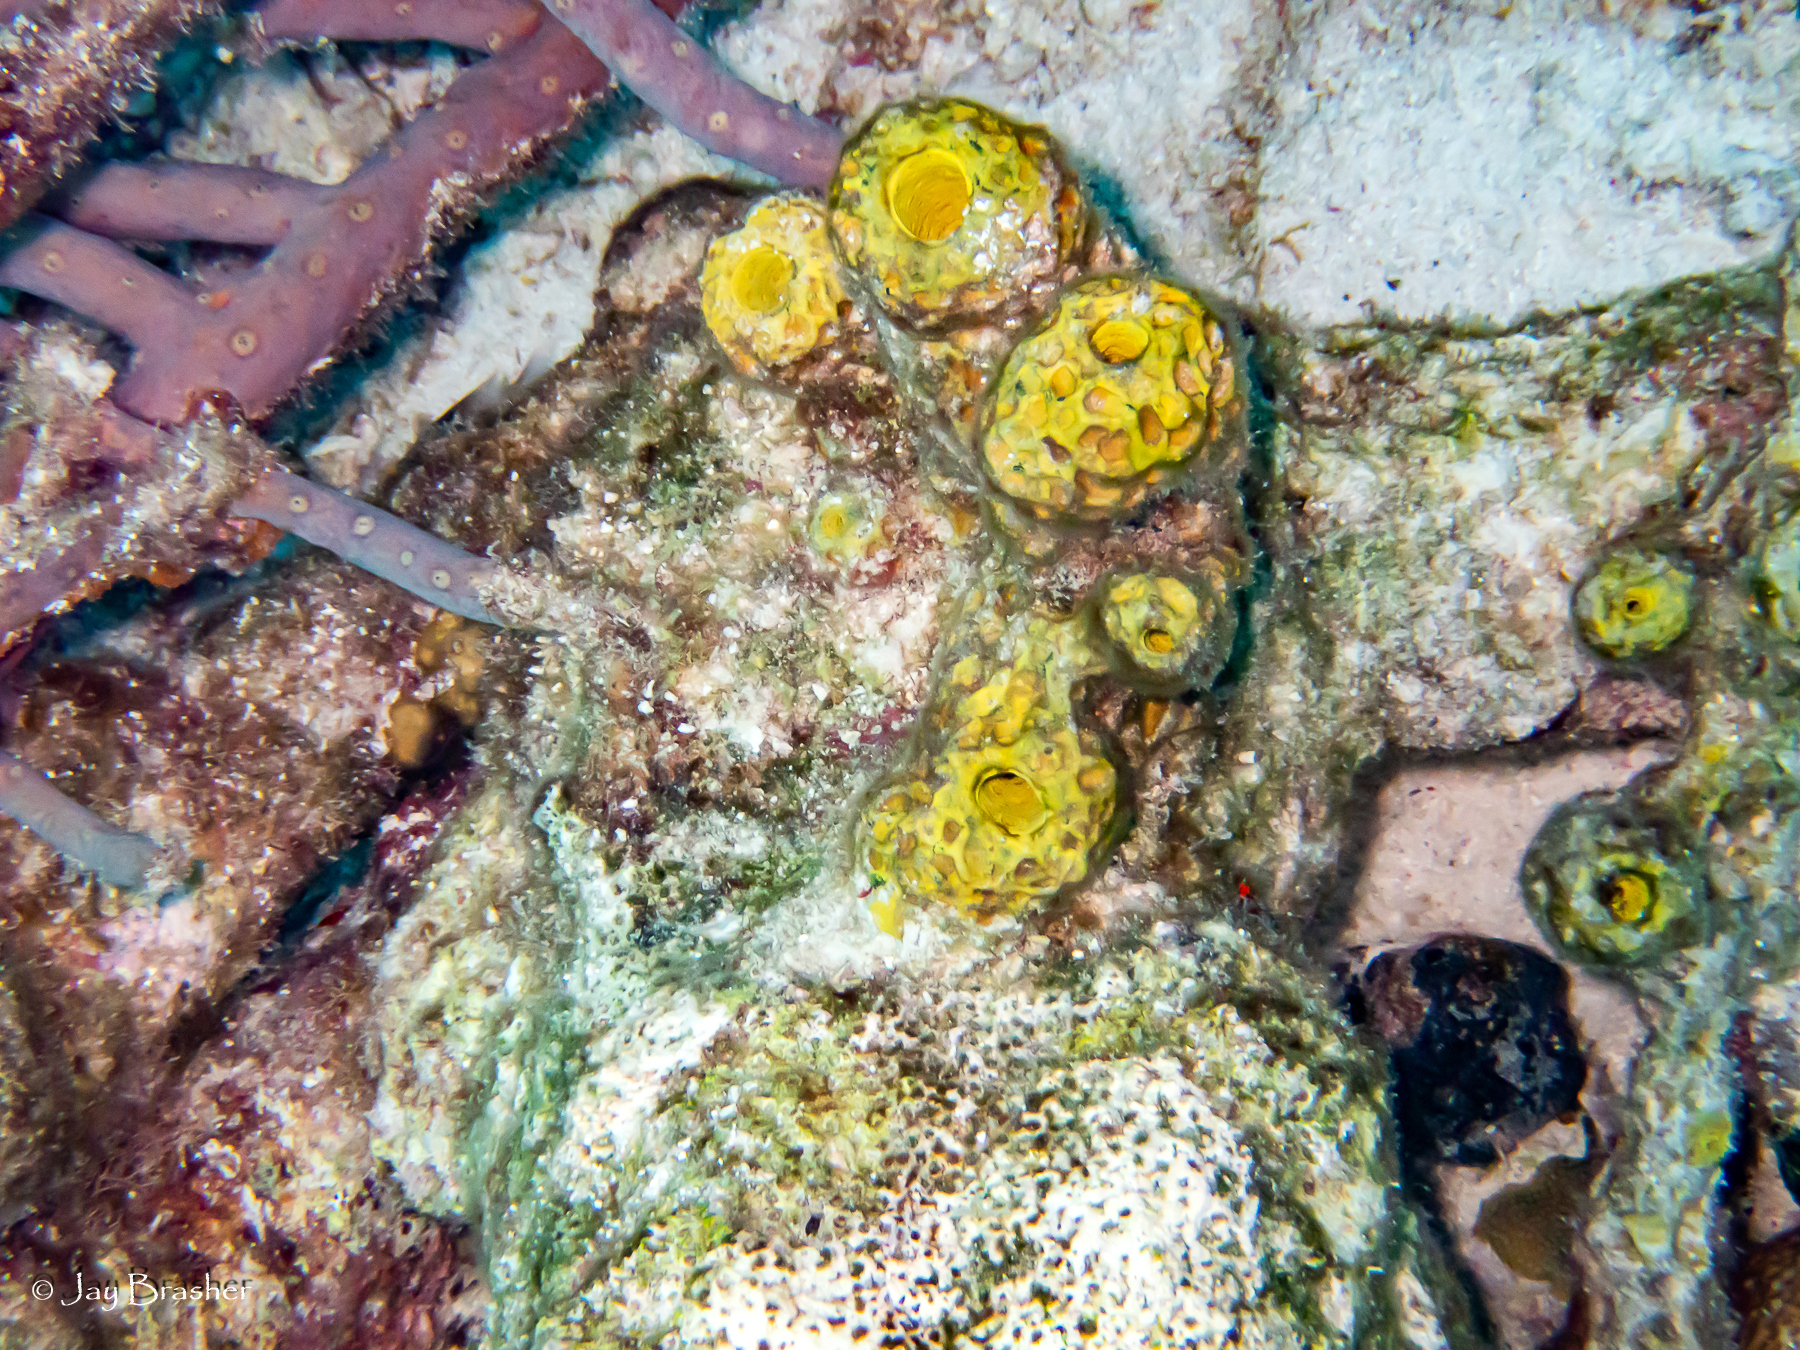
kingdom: Animalia
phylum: Porifera
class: Demospongiae
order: Verongiida
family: Aplysinidae
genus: Verongula
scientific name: Verongula rigida
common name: Pitted sponge
